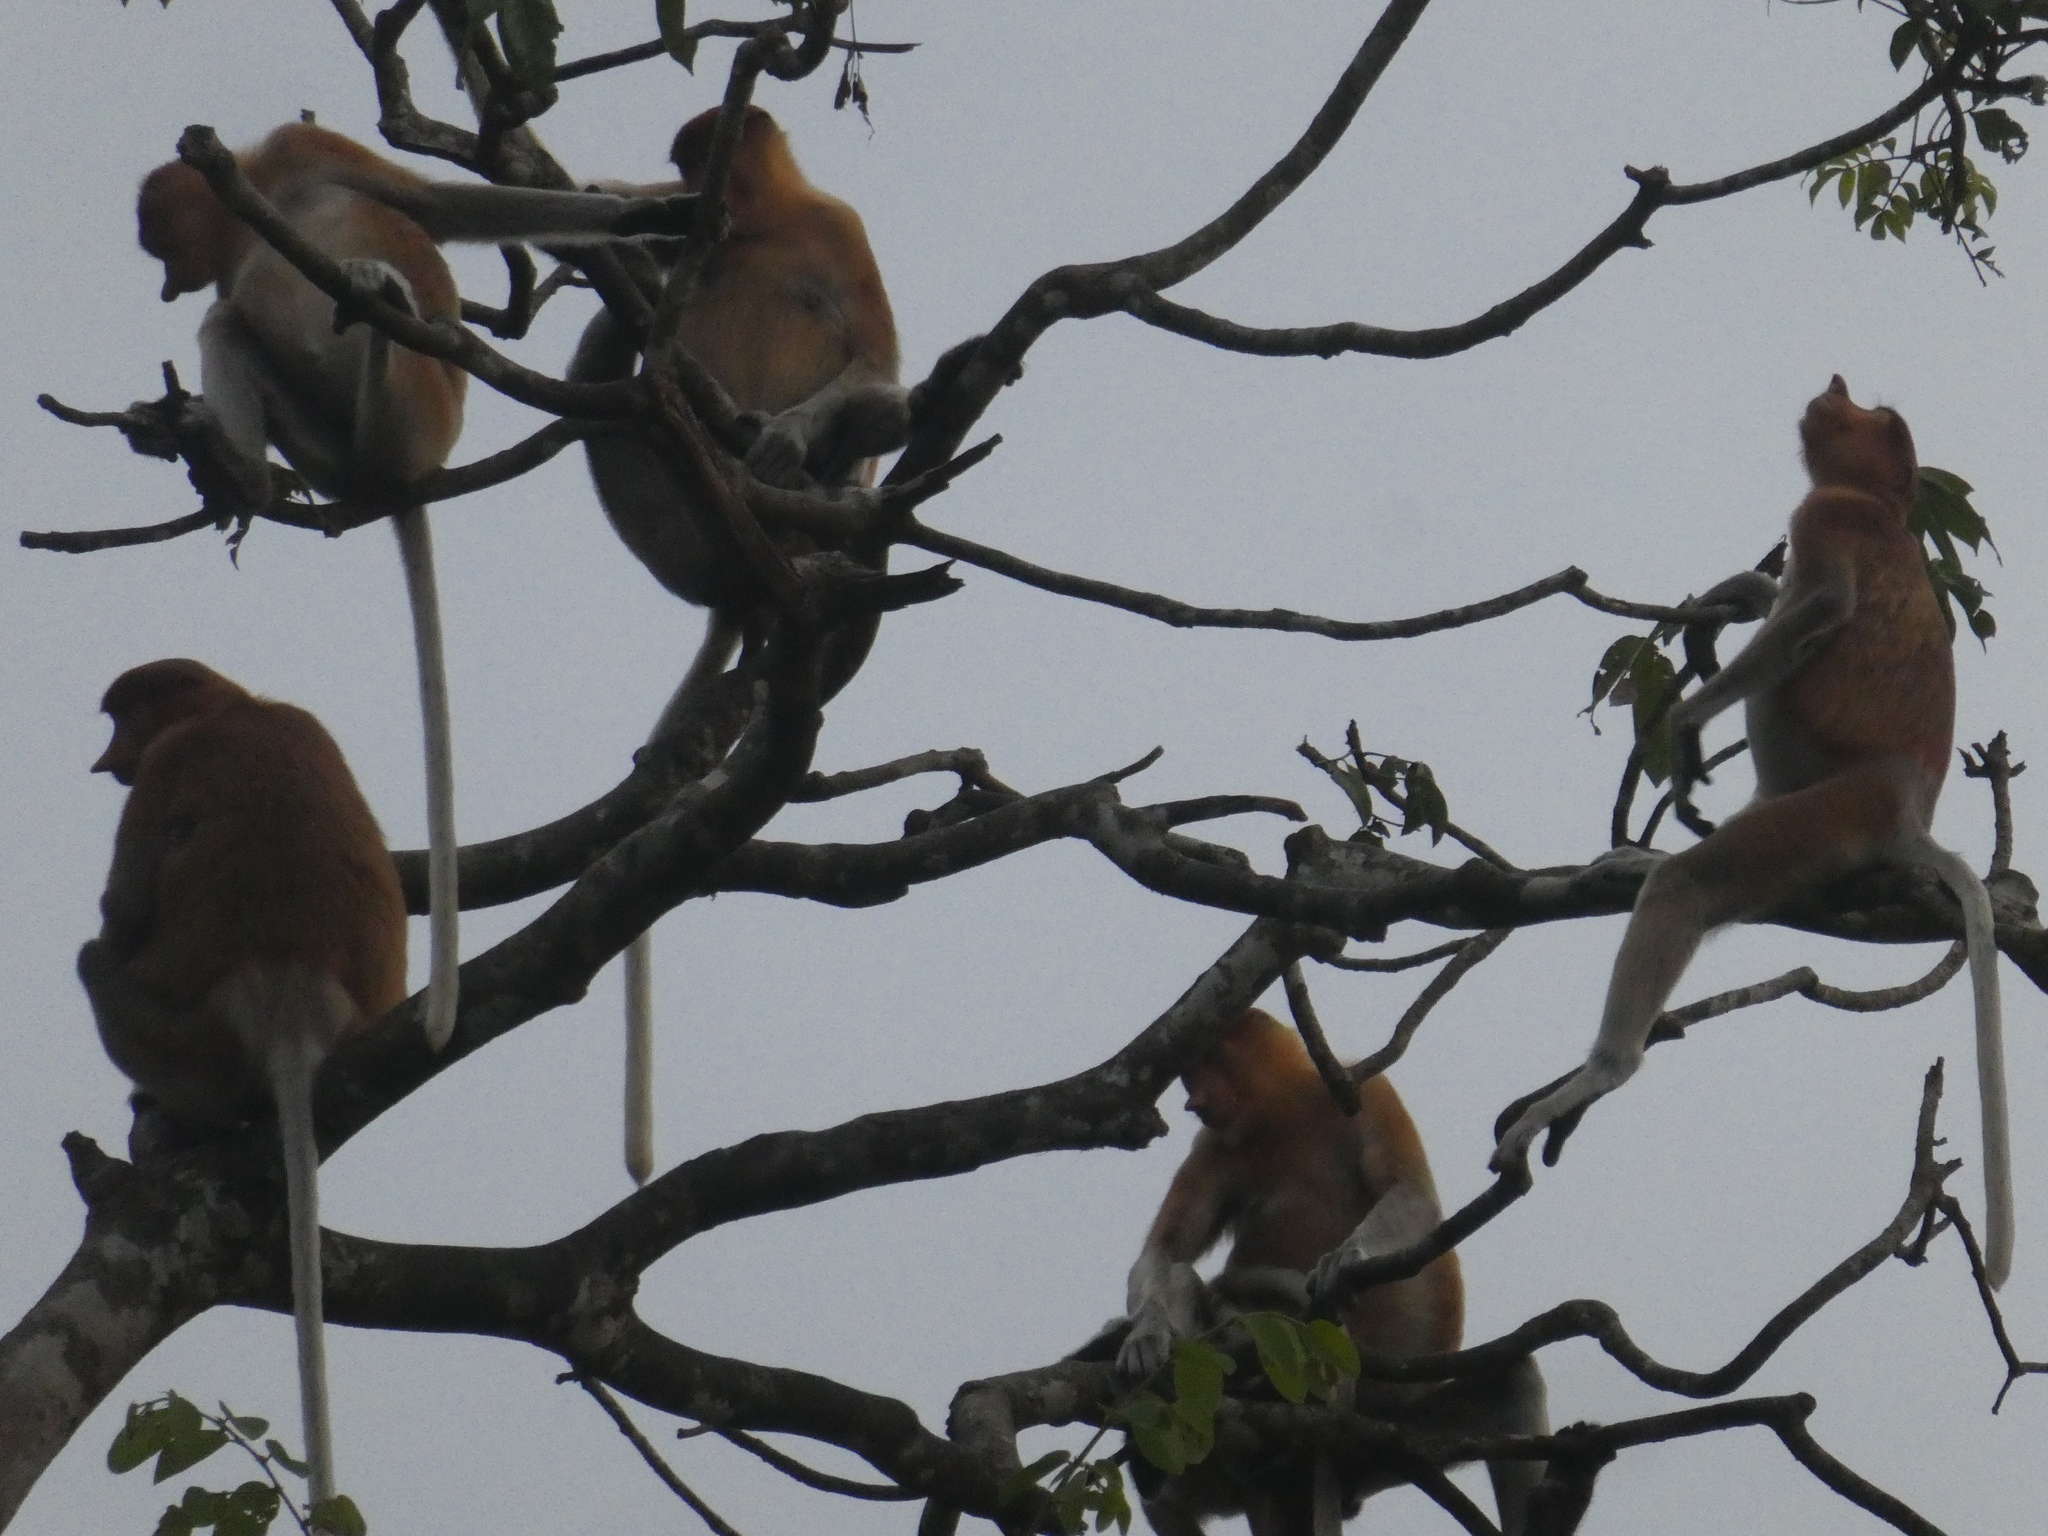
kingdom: Animalia
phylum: Chordata
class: Mammalia
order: Primates
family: Cercopithecidae
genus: Nasalis
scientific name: Nasalis larvatus
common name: Proboscis monkey
